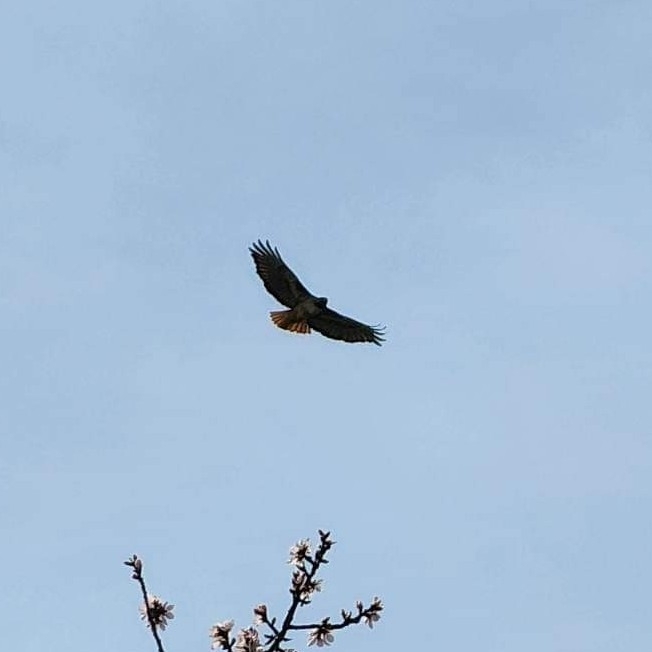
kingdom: Animalia
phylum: Chordata
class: Aves
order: Accipitriformes
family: Accipitridae
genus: Buteo
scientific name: Buteo jamaicensis
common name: Red-tailed hawk
